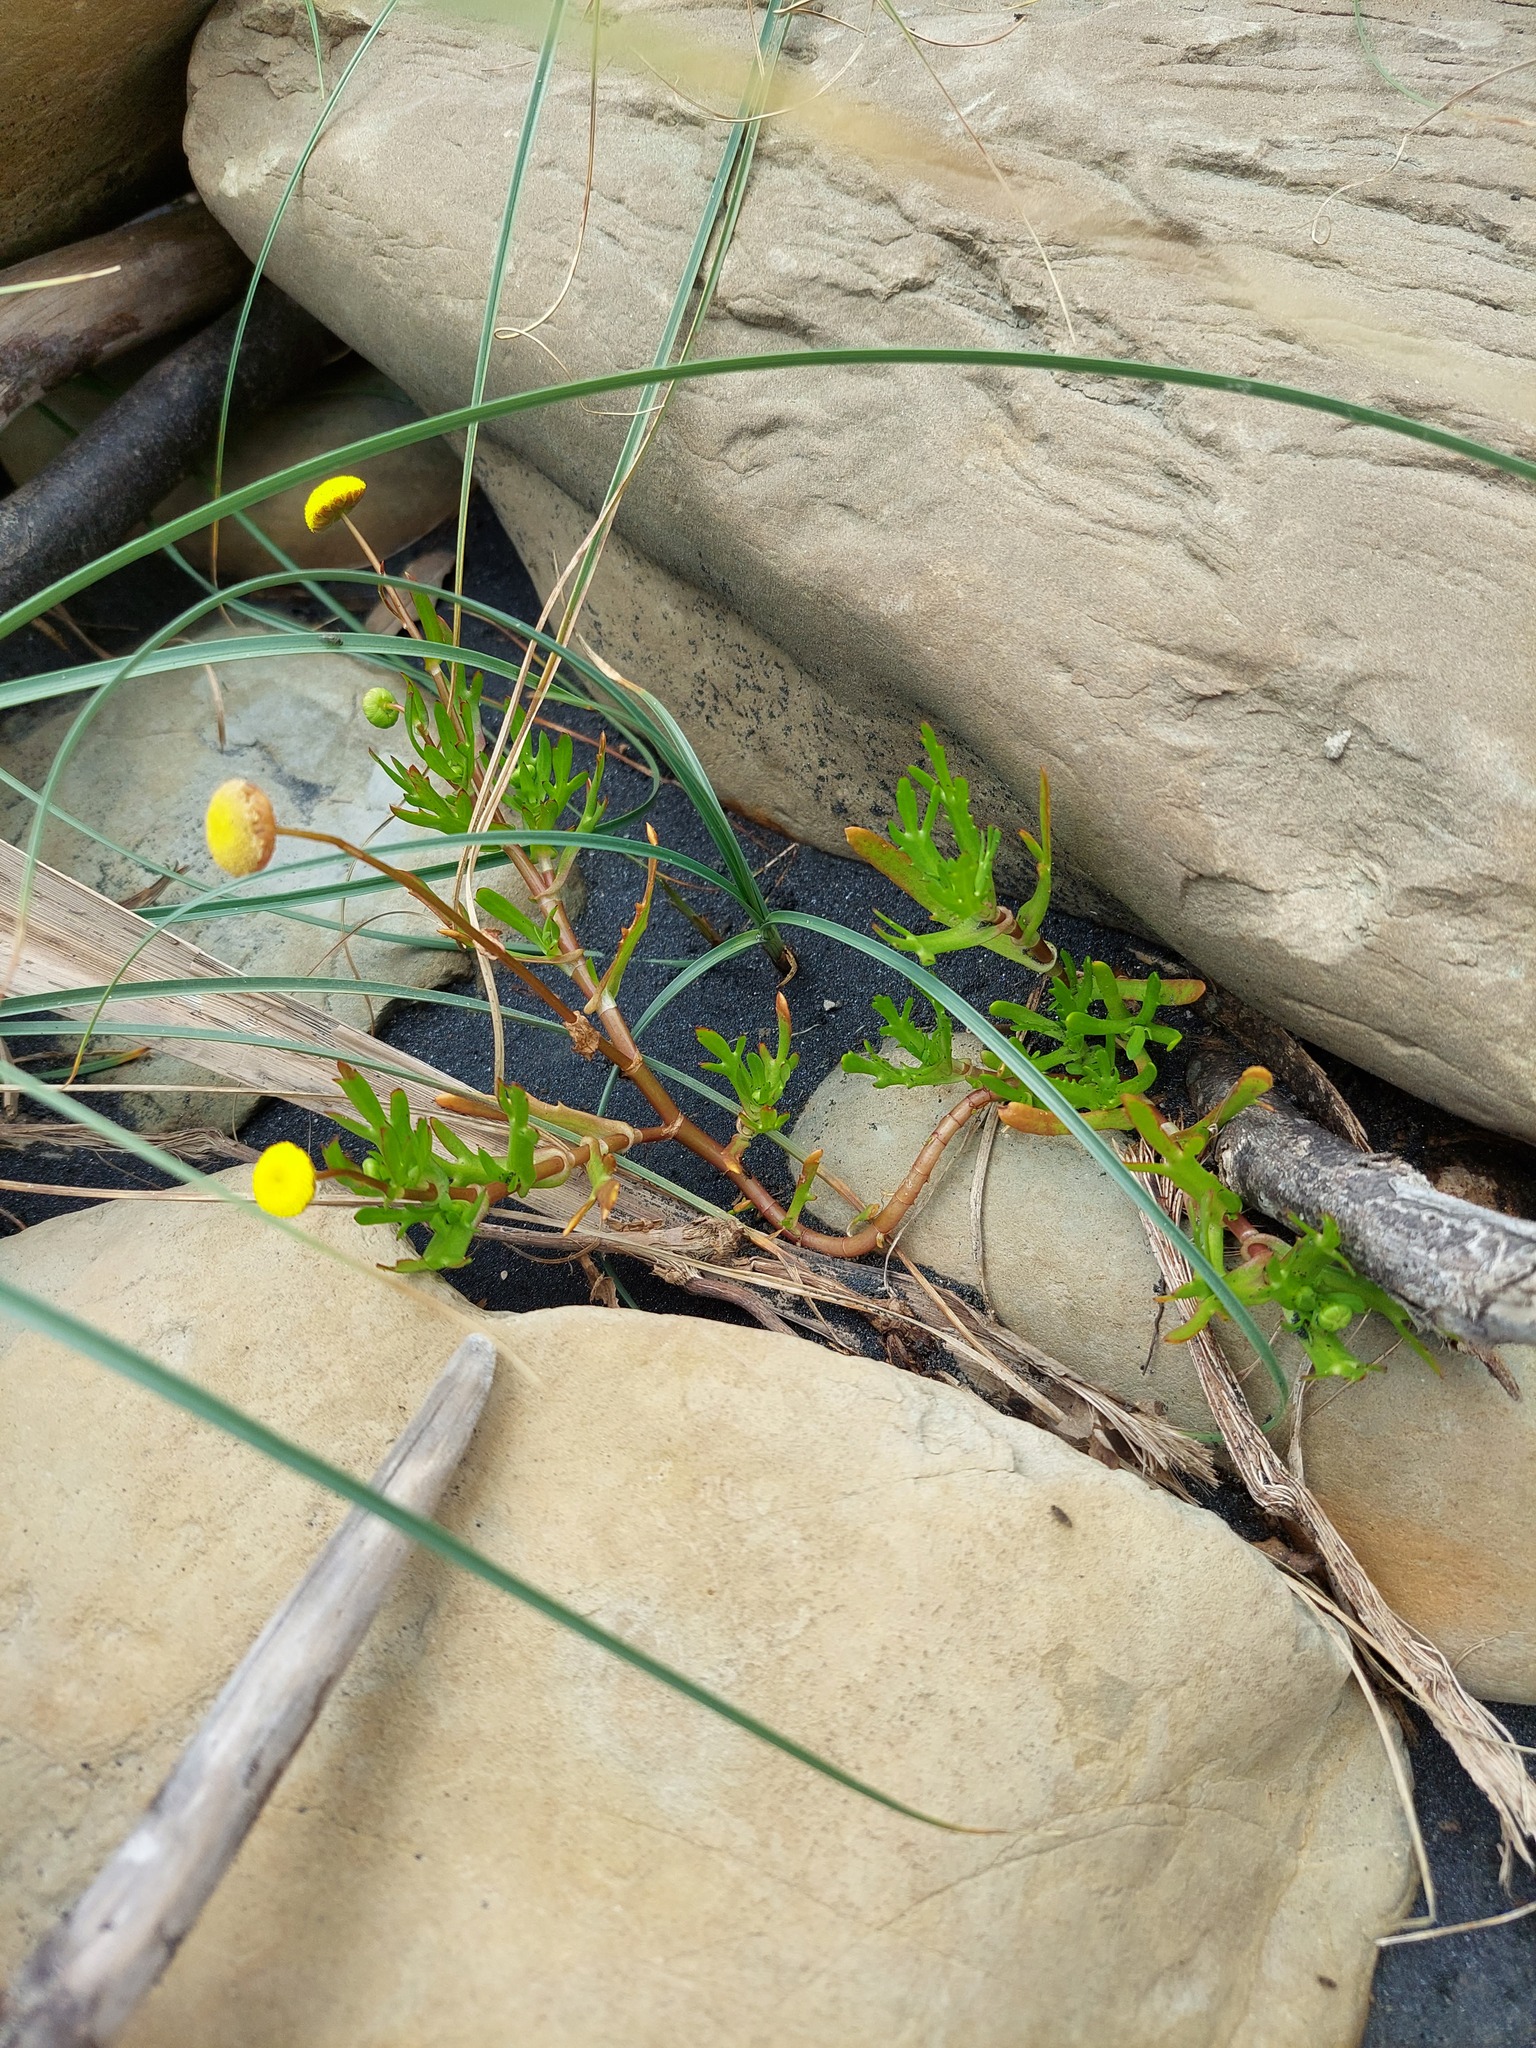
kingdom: Plantae
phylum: Tracheophyta
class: Magnoliopsida
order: Asterales
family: Asteraceae
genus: Cotula
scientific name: Cotula coronopifolia
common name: Buttonweed
